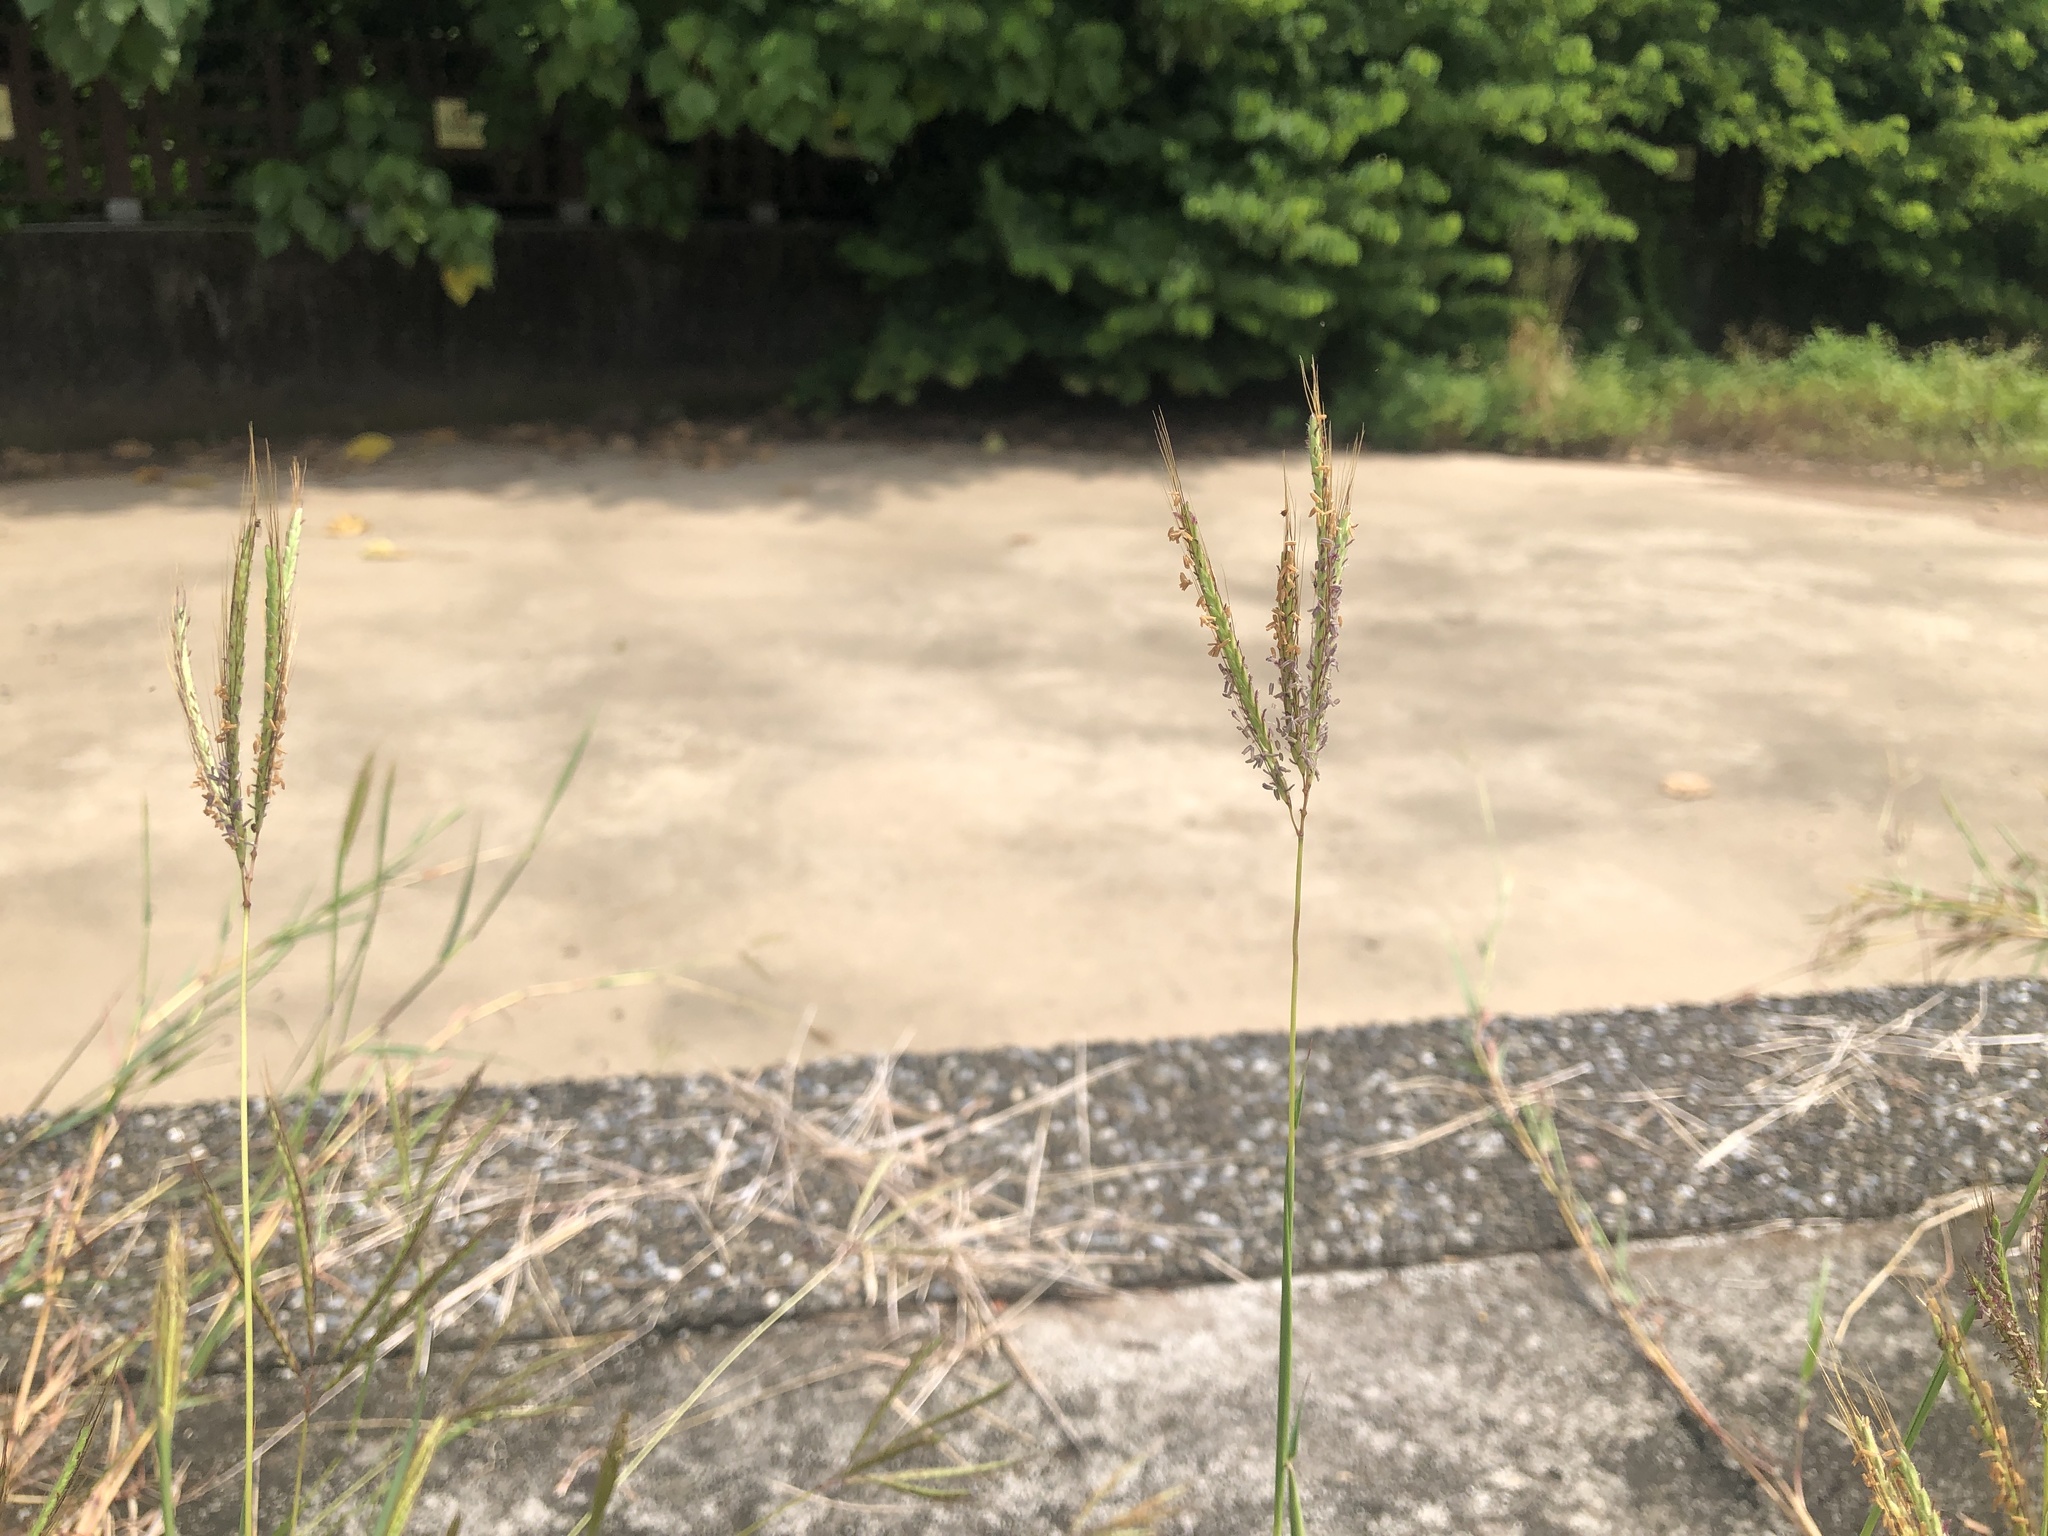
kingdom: Plantae
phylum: Tracheophyta
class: Liliopsida
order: Poales
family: Poaceae
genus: Dichanthium
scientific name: Dichanthium annulatum
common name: Kleberg's bluestem
